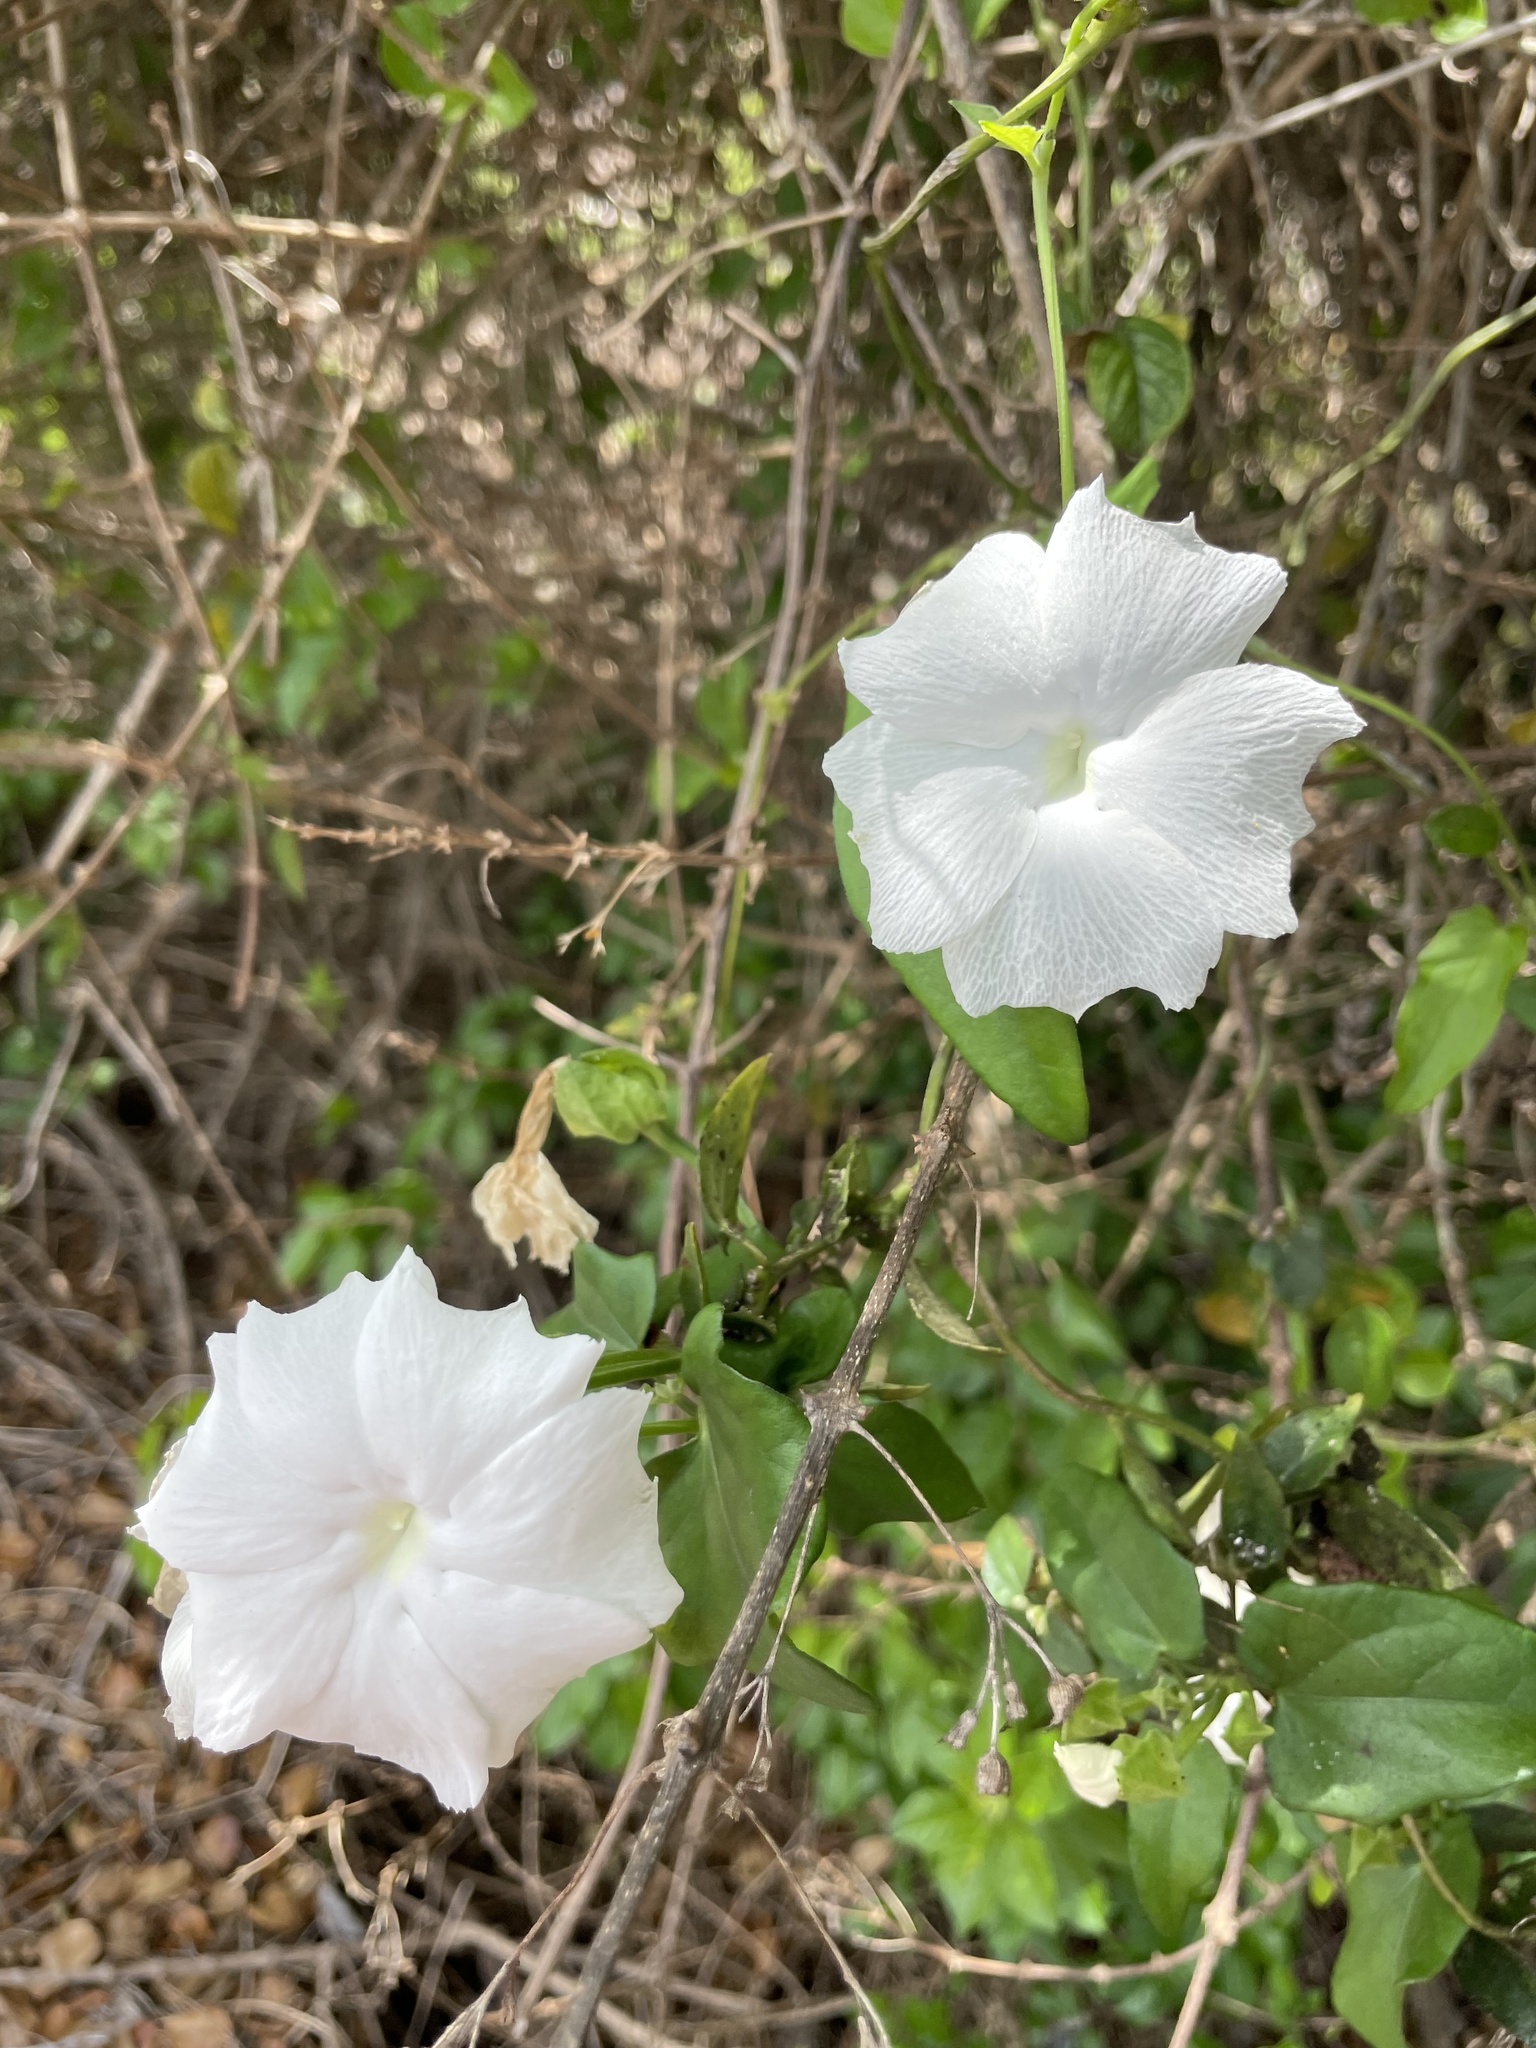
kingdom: Plantae
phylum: Tracheophyta
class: Magnoliopsida
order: Lamiales
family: Acanthaceae
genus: Thunbergia
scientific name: Thunbergia fragrans
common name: Whitelady
